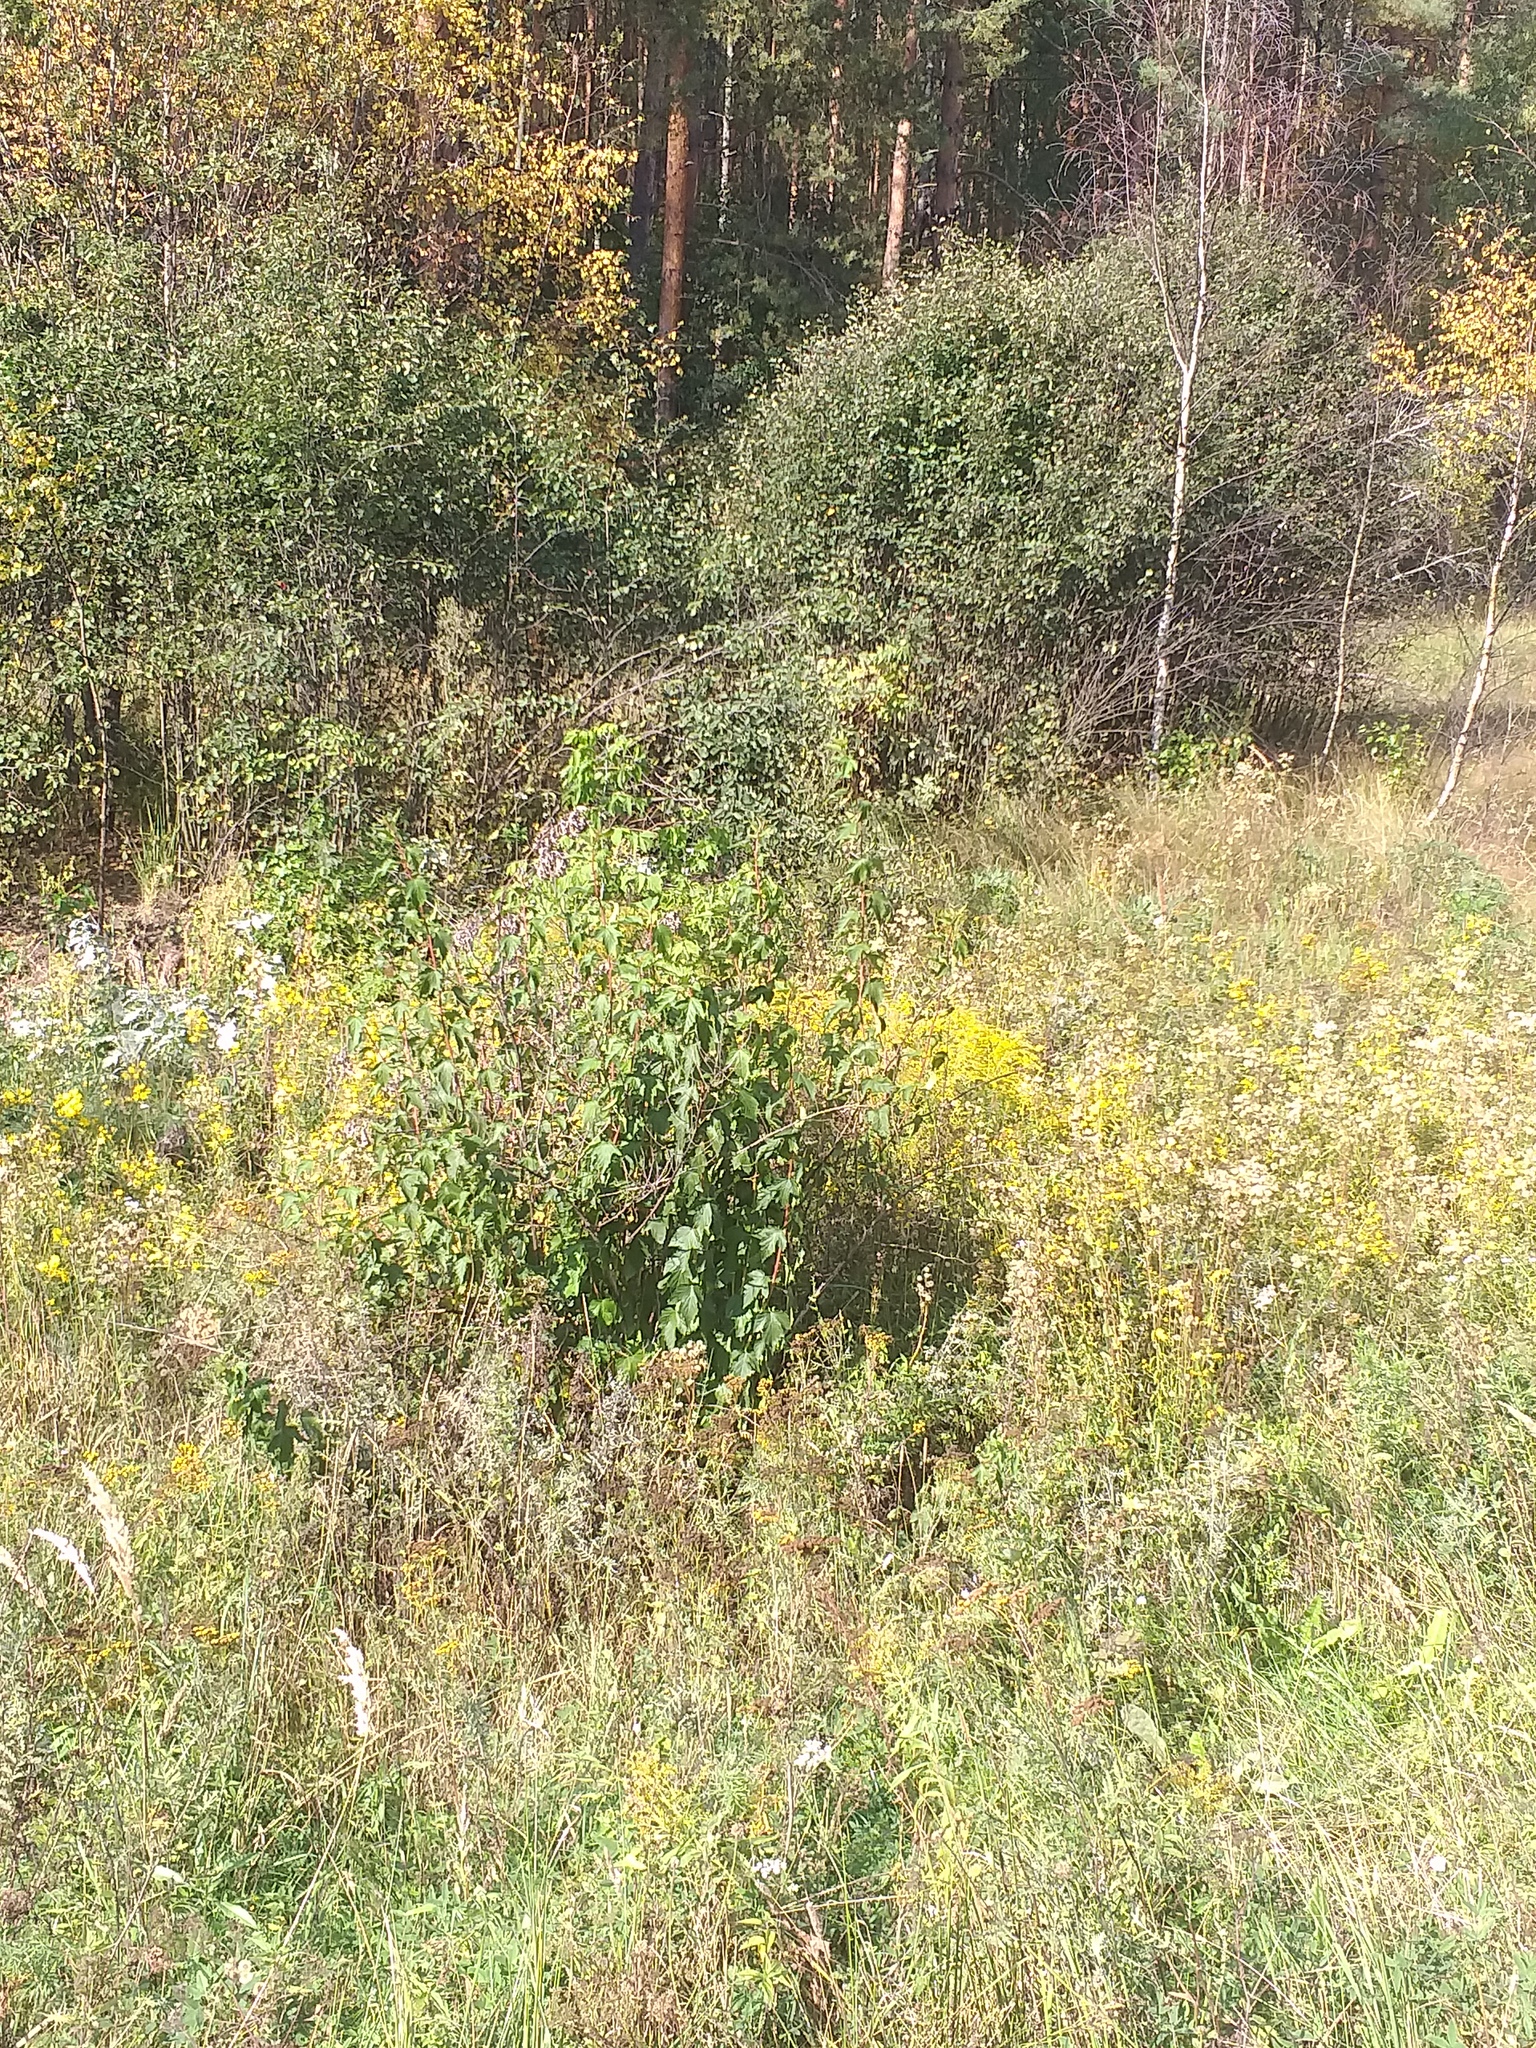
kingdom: Plantae
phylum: Tracheophyta
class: Magnoliopsida
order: Rosales
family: Rosaceae
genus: Physocarpus
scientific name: Physocarpus opulifolius
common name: Ninebark
